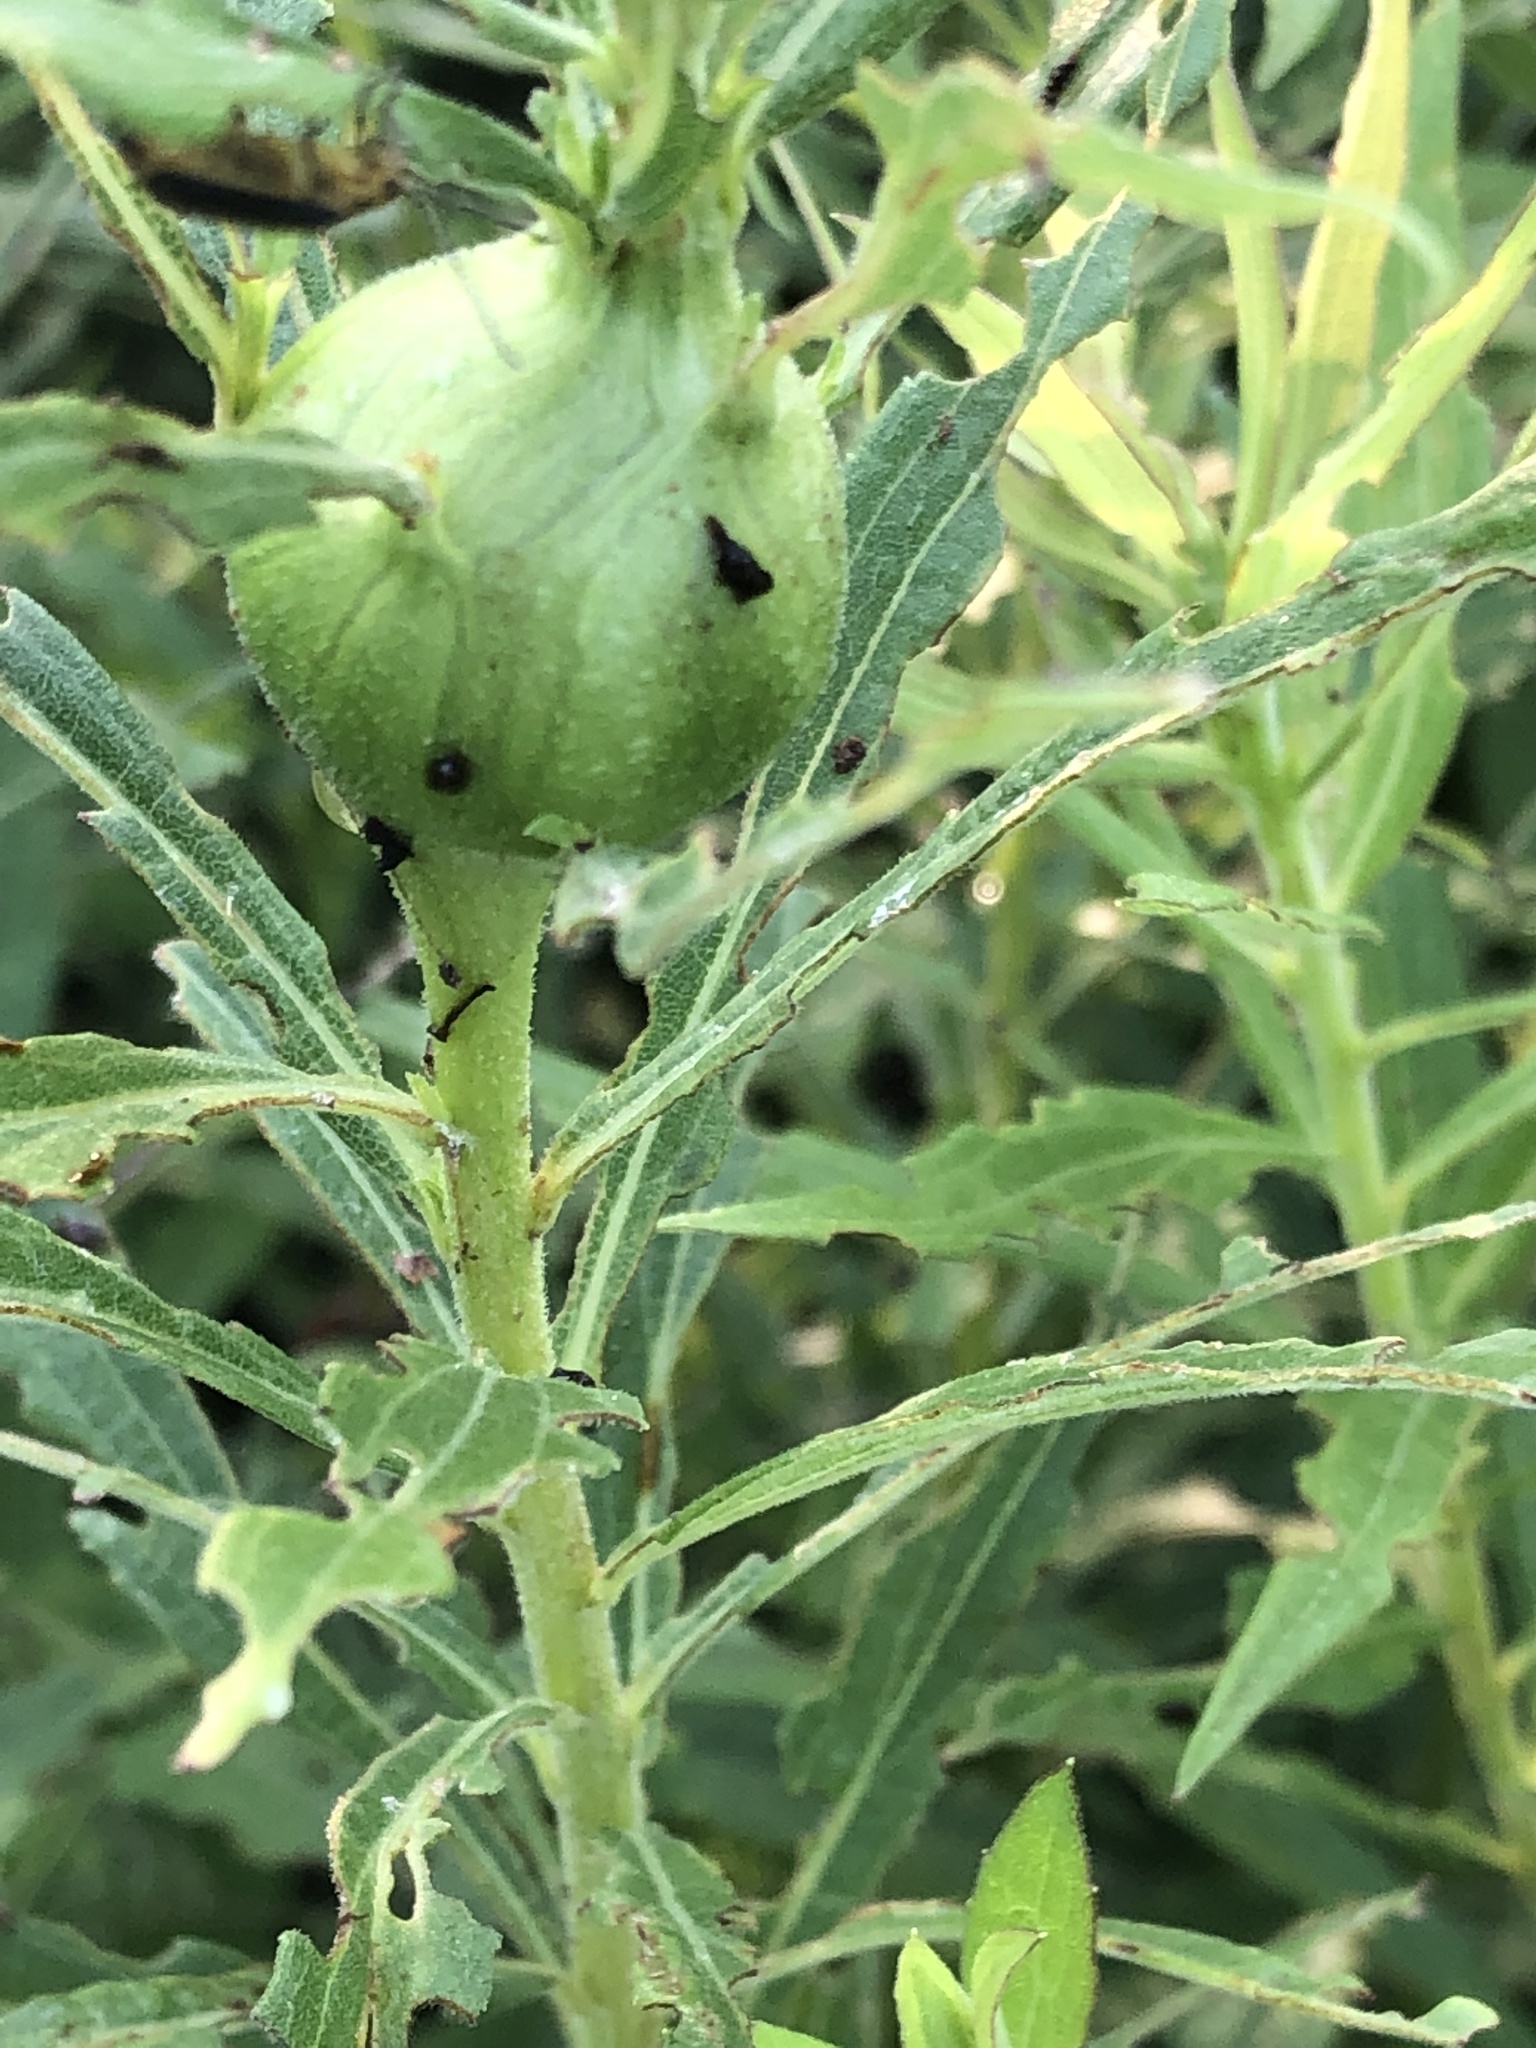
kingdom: Animalia
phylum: Arthropoda
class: Insecta
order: Diptera
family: Tephritidae
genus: Eurosta
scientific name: Eurosta solidaginis
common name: Goldenrod gall fly
